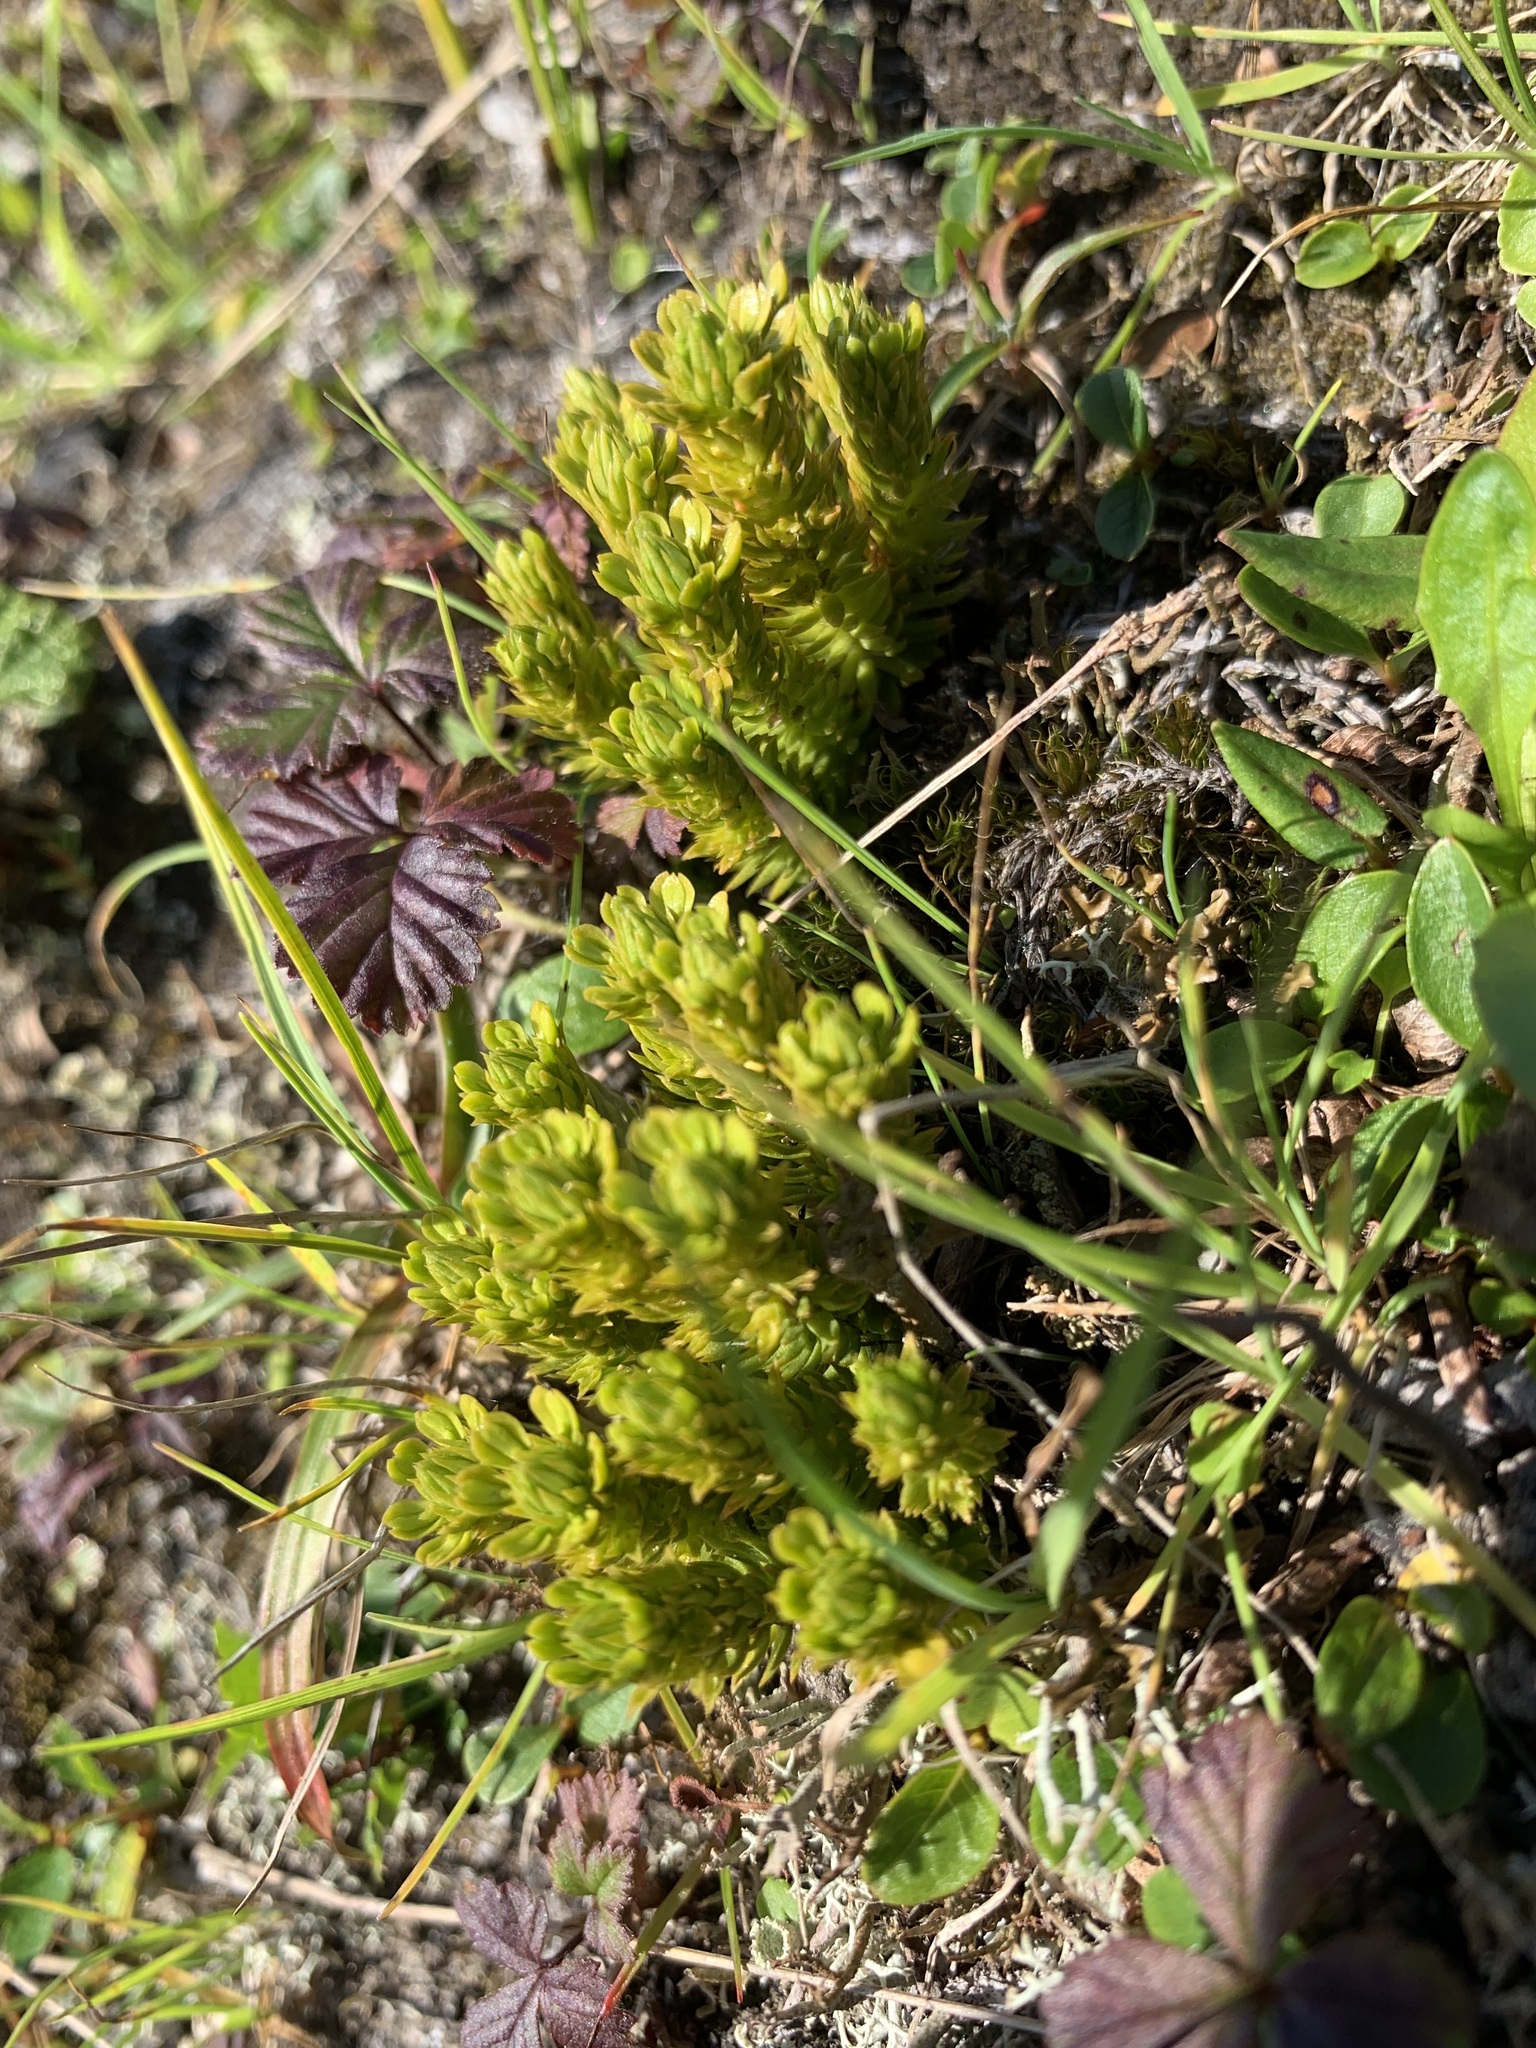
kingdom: Plantae
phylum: Tracheophyta
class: Lycopodiopsida
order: Lycopodiales
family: Lycopodiaceae
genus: Huperzia
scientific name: Huperzia selago
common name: Northern firmoss
